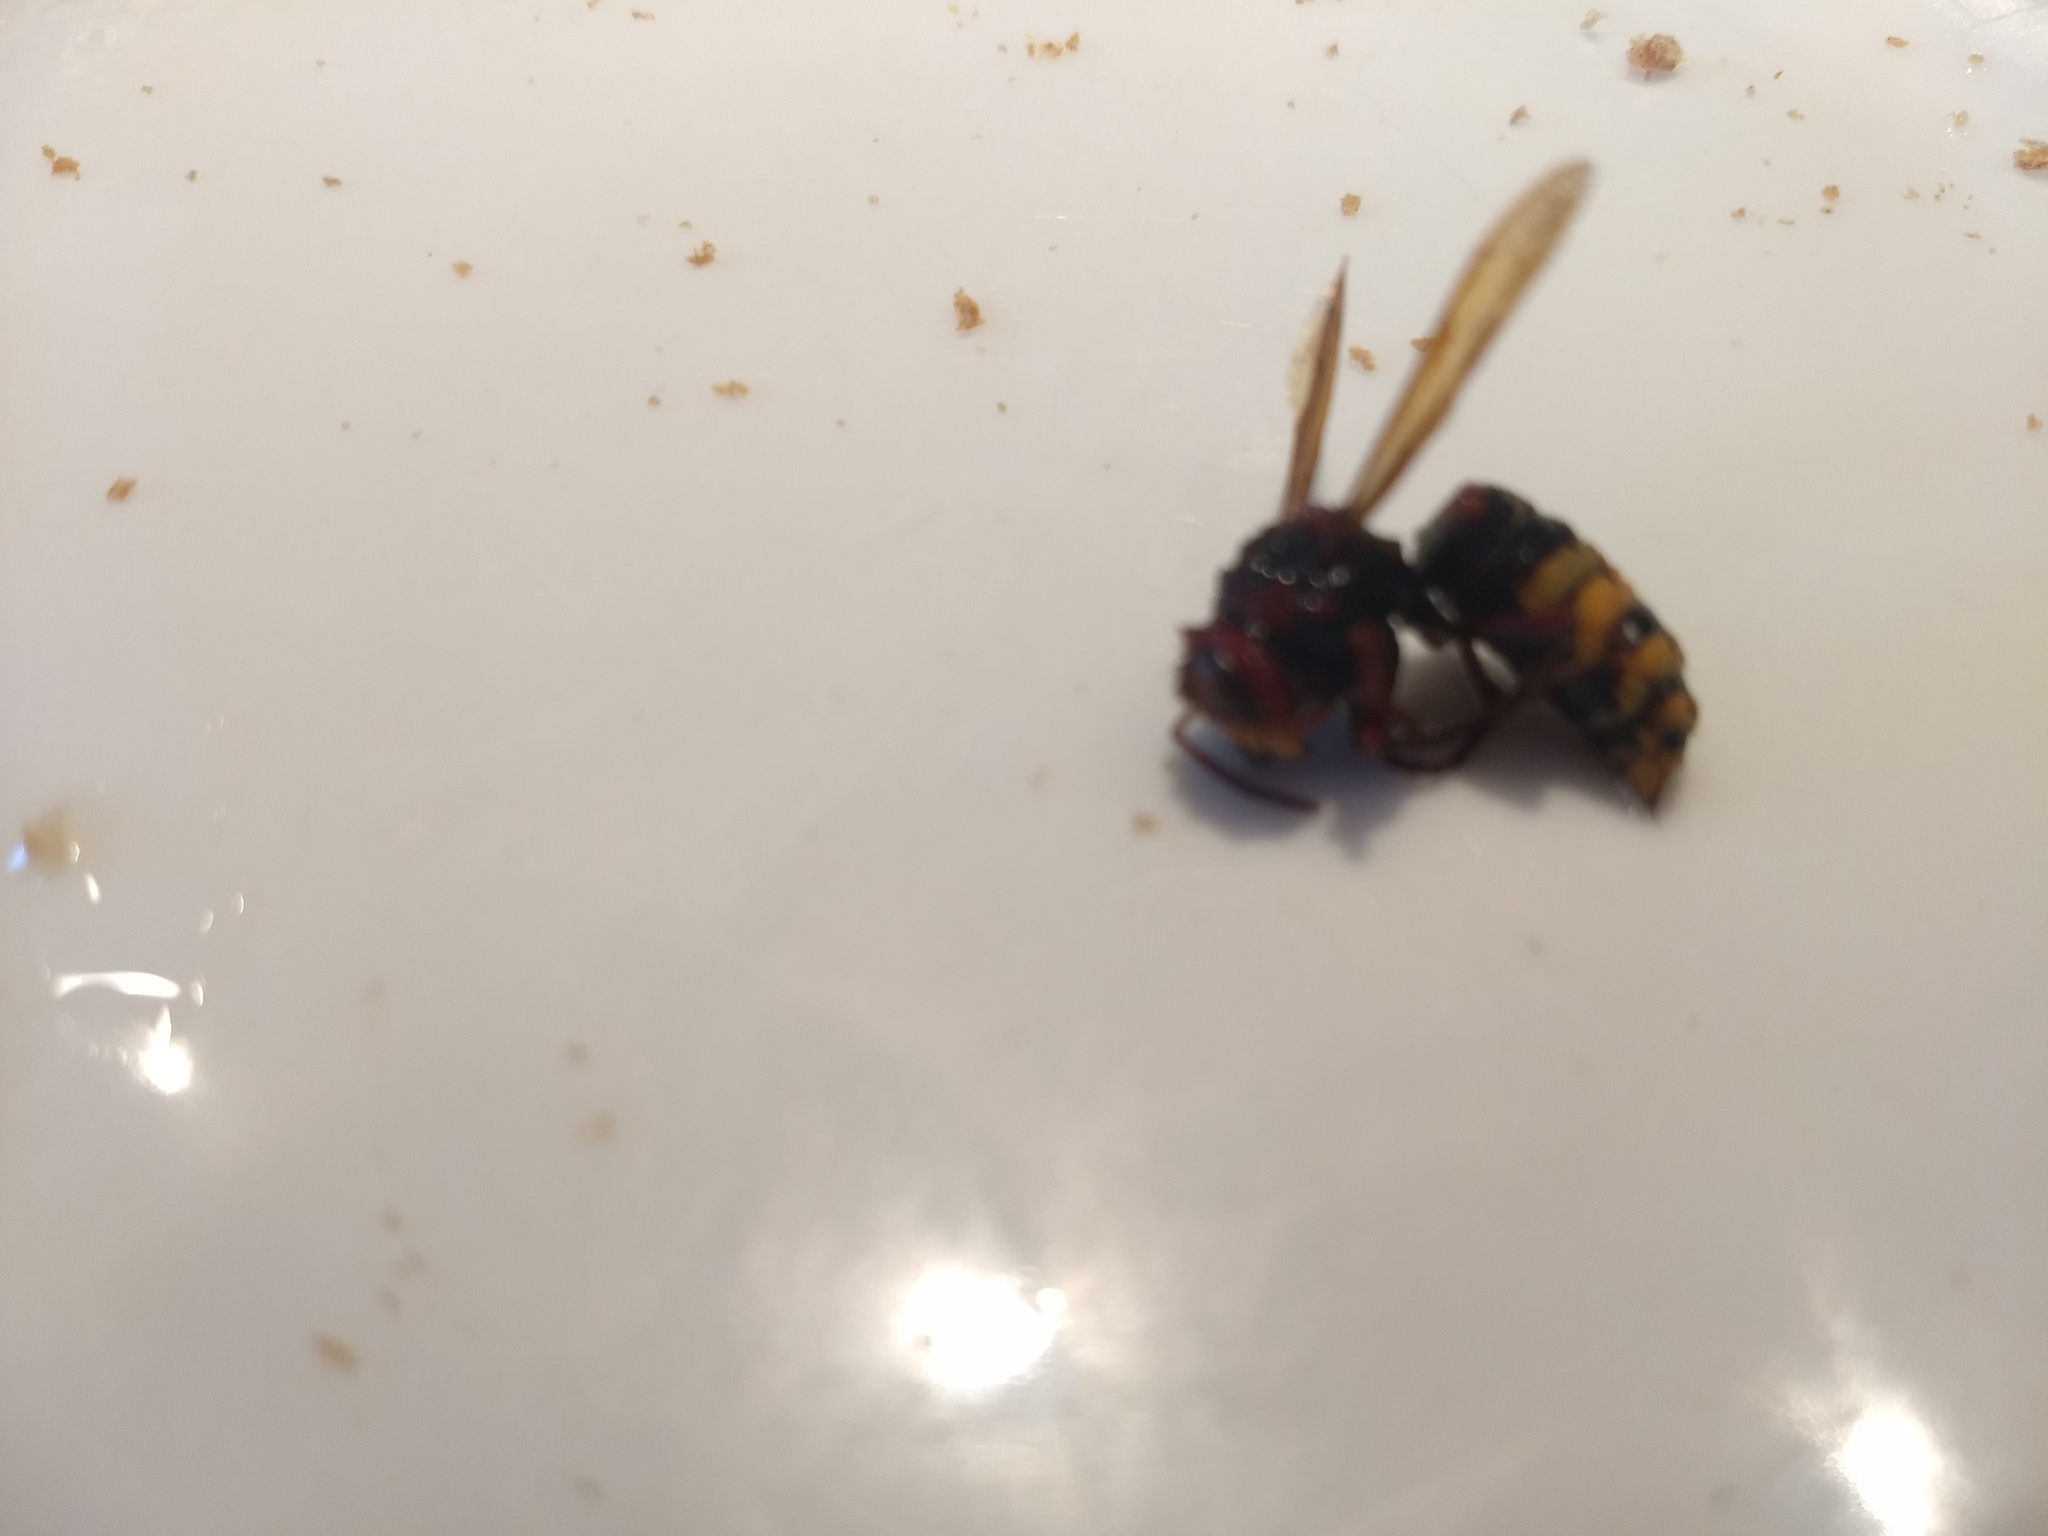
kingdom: Animalia
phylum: Arthropoda
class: Insecta
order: Hymenoptera
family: Vespidae
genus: Vespa
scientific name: Vespa crabro
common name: Hornet
